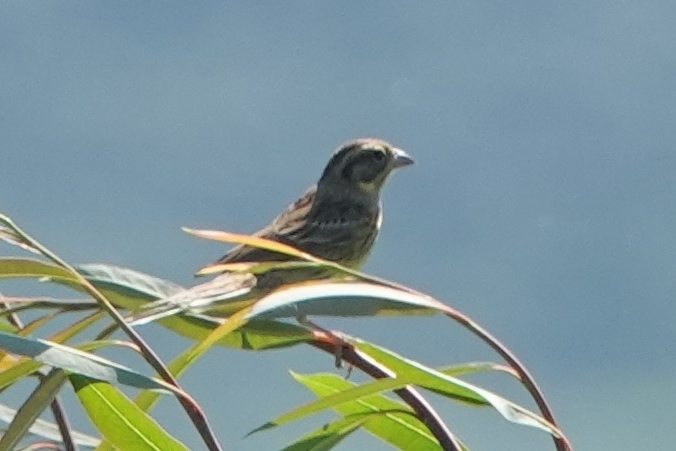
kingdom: Animalia
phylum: Chordata
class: Aves
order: Passeriformes
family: Emberizidae
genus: Emberiza
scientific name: Emberiza aureola
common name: Yellow-breasted bunting
